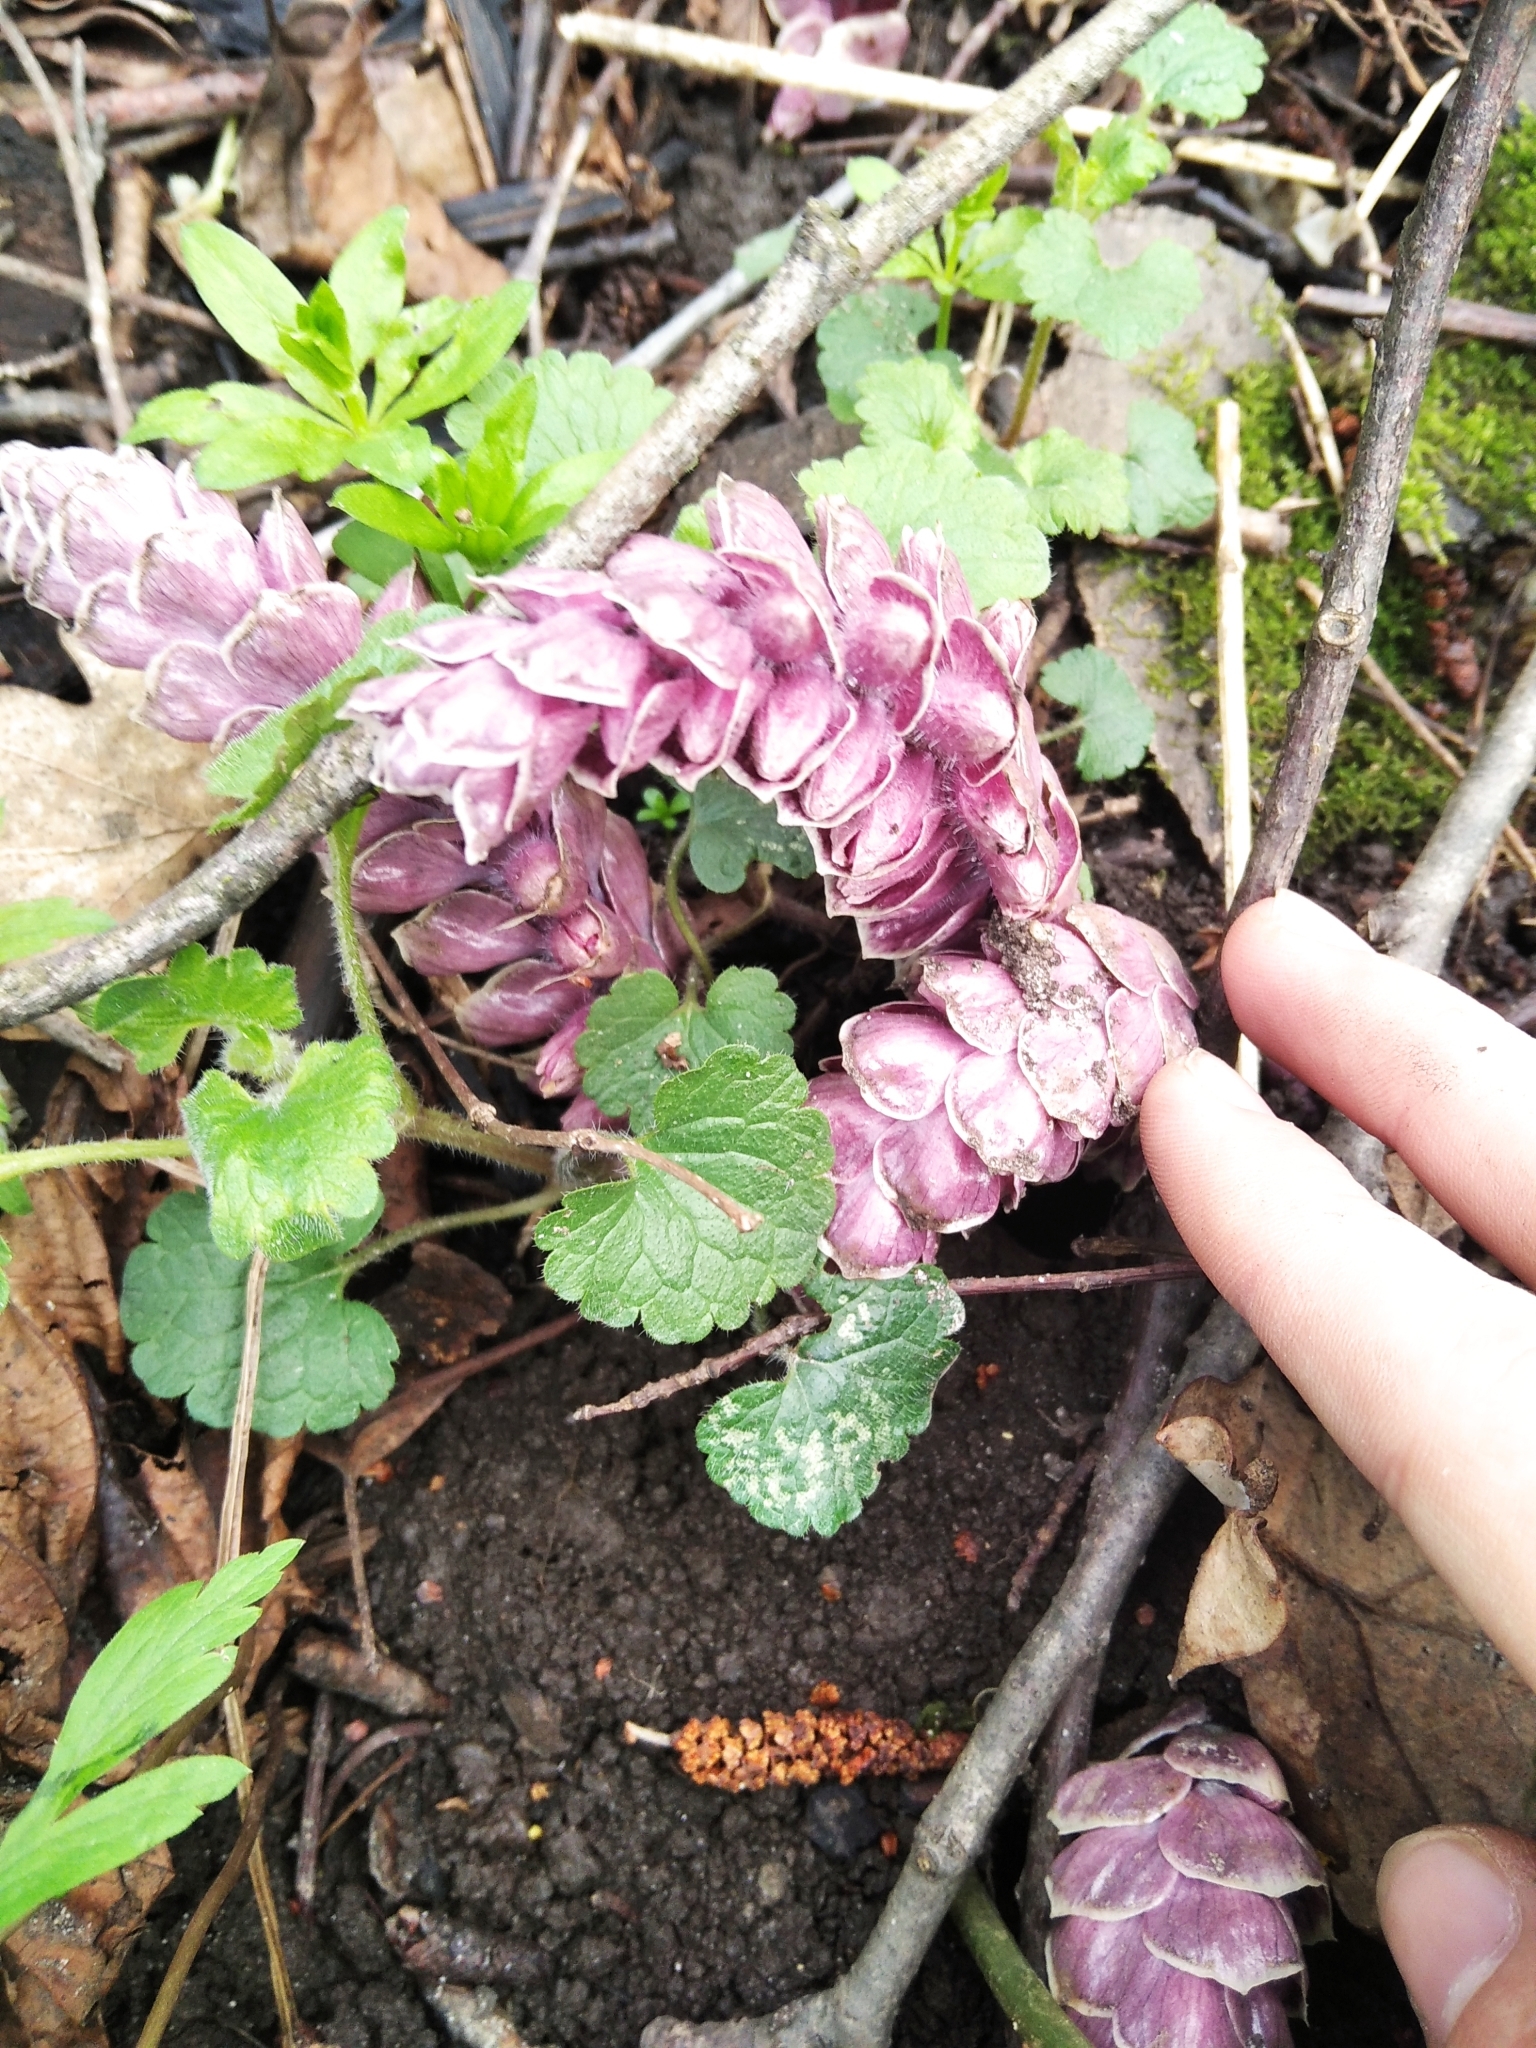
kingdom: Plantae
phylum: Tracheophyta
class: Magnoliopsida
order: Lamiales
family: Orobanchaceae
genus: Lathraea
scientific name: Lathraea squamaria
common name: Toothwort
